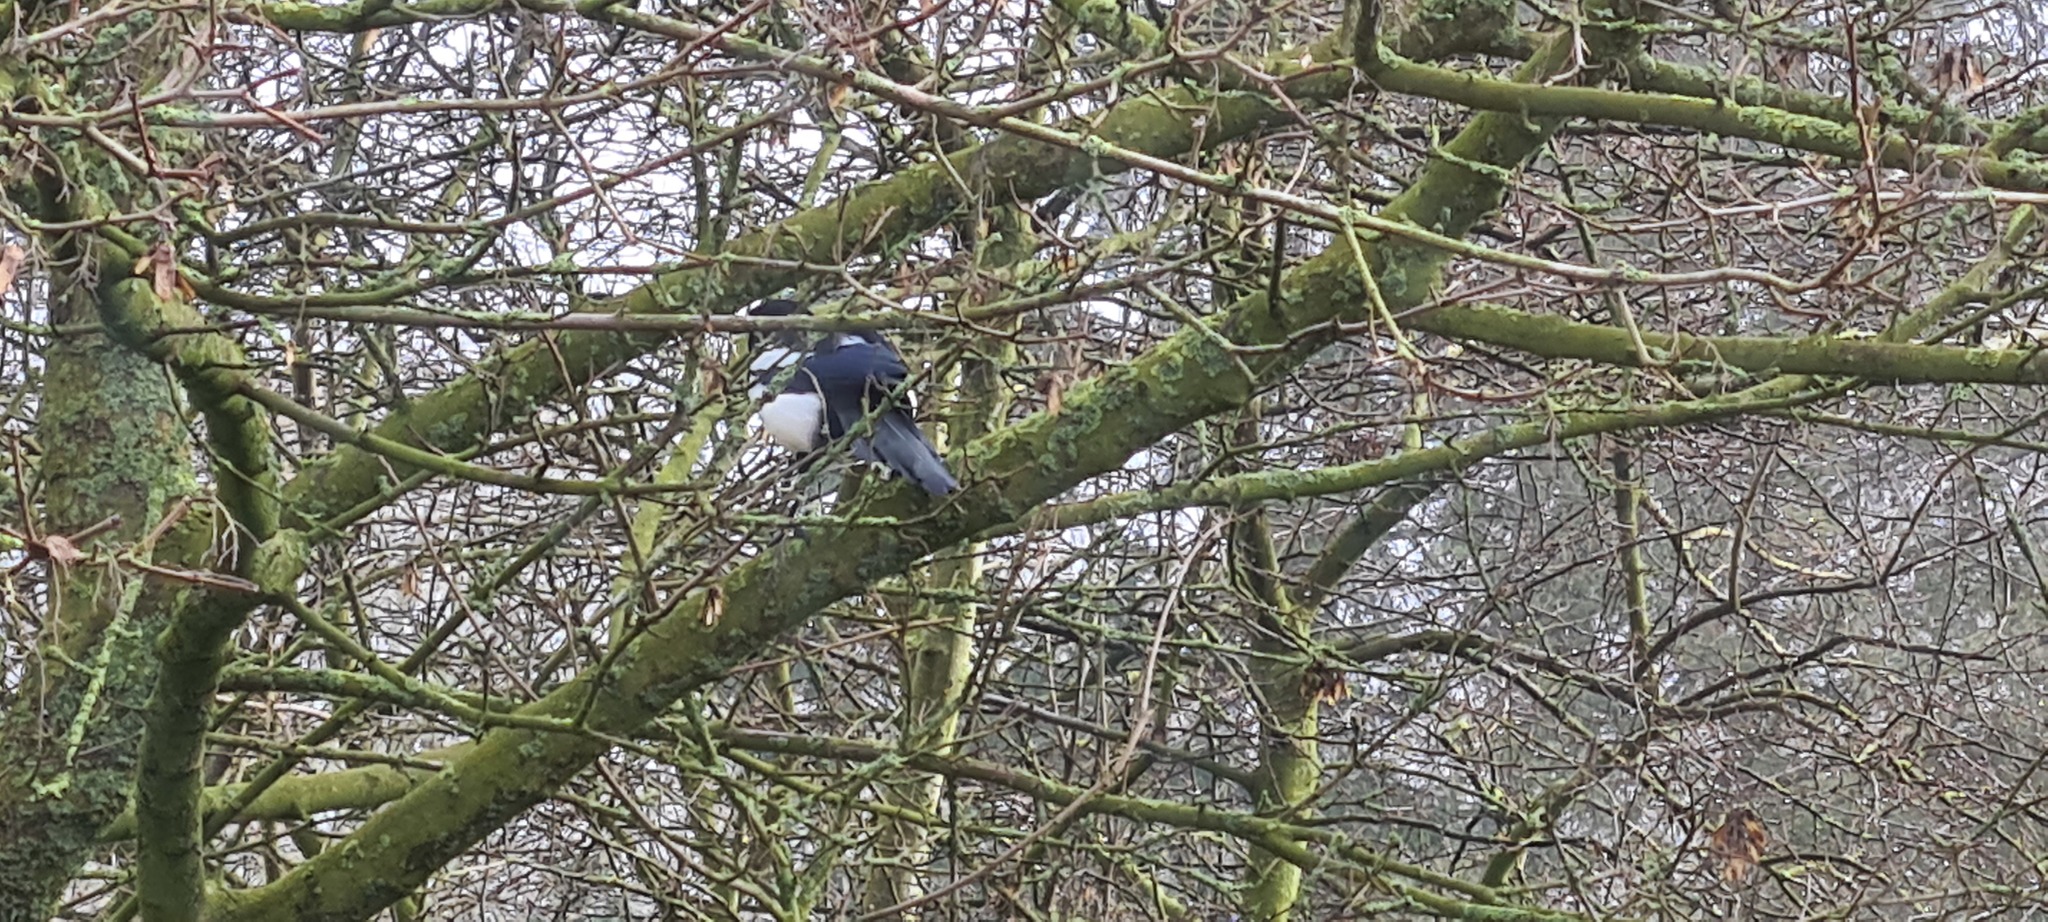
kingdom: Animalia
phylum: Chordata
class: Aves
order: Passeriformes
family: Corvidae
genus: Pica
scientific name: Pica pica
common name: Eurasian magpie
